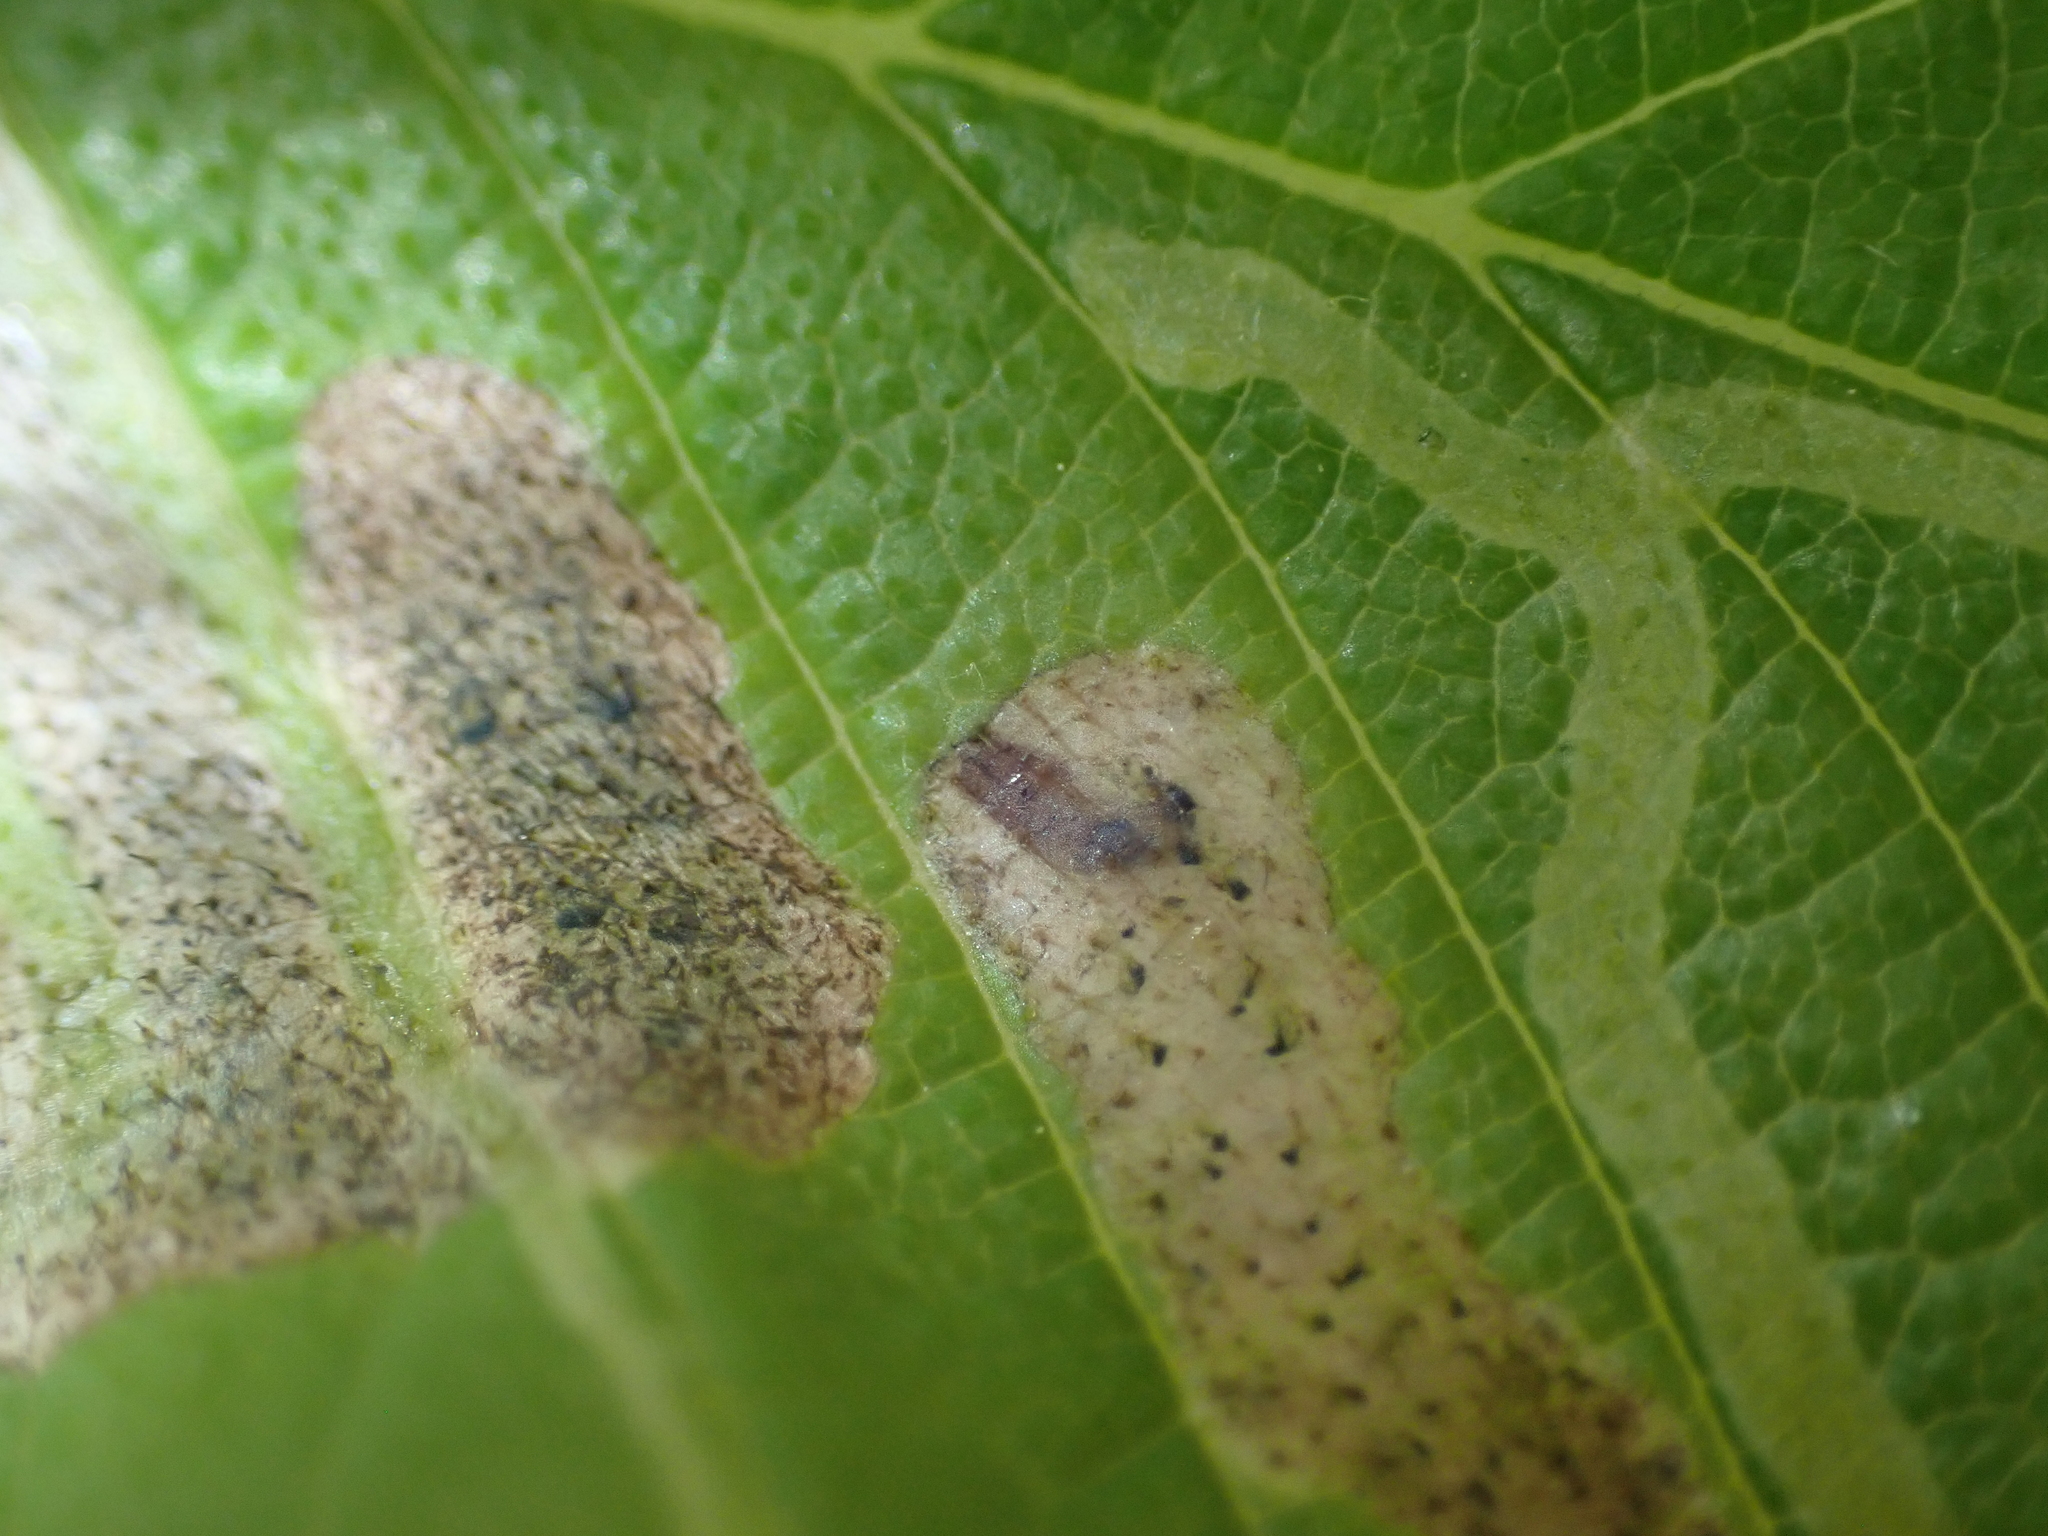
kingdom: Animalia
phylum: Arthropoda
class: Insecta
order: Diptera
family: Agromyzidae
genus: Agromyza
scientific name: Agromyza aristata
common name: Elm agromyzid leafminer
